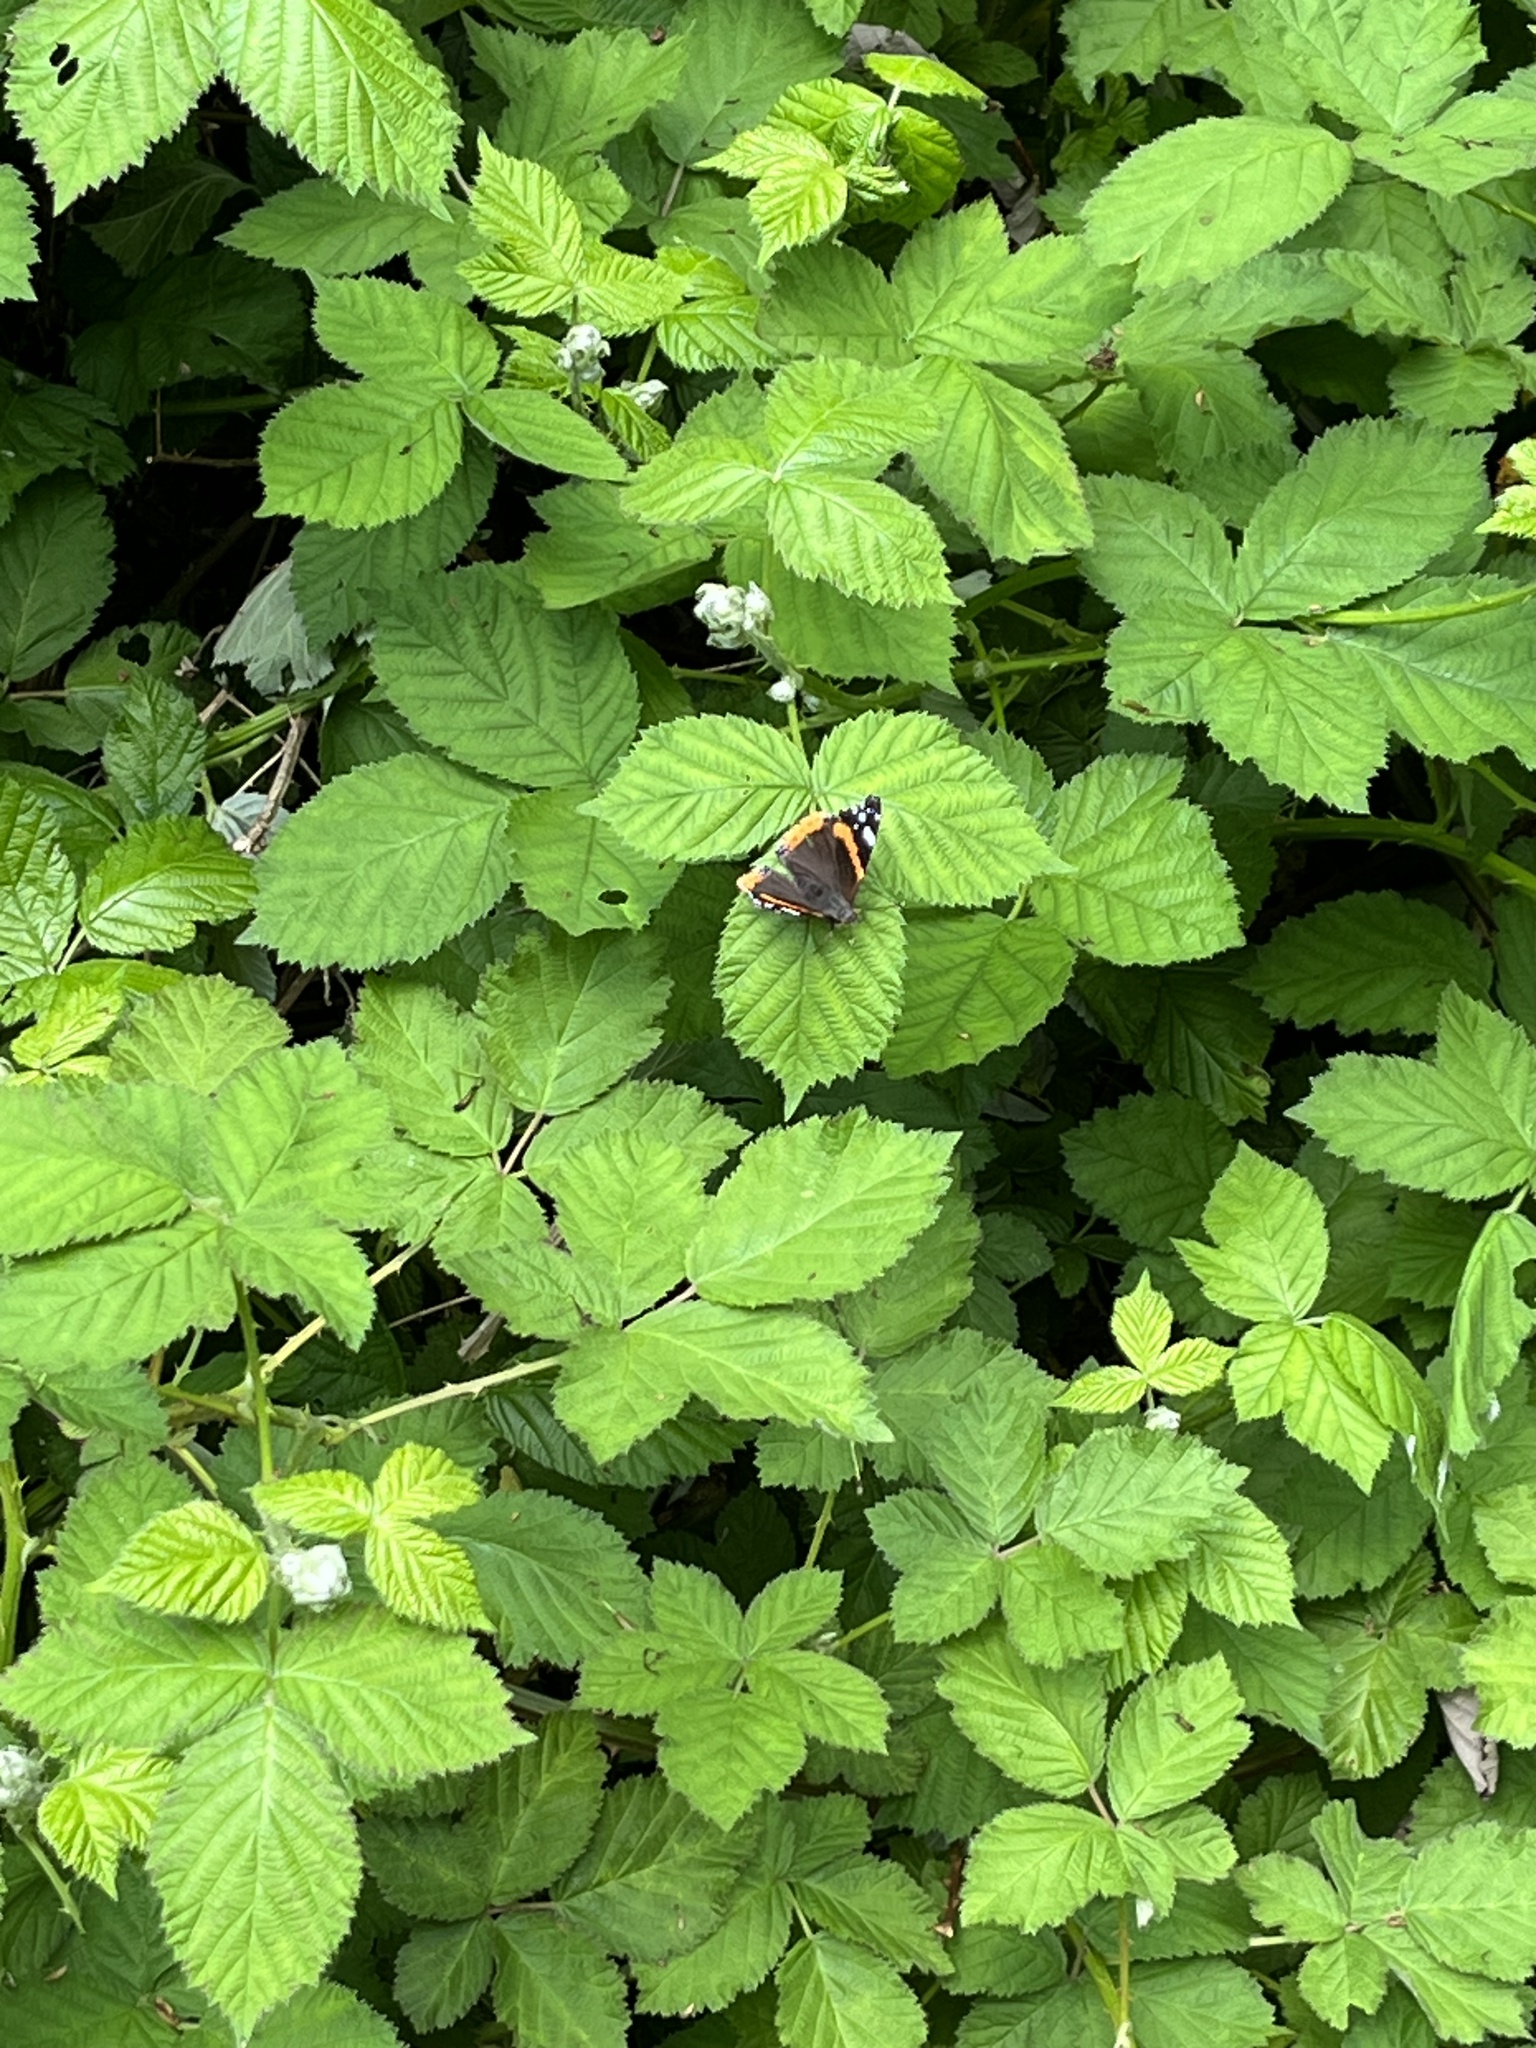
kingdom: Animalia
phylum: Arthropoda
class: Insecta
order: Lepidoptera
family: Nymphalidae
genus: Vanessa
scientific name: Vanessa atalanta
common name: Red admiral
